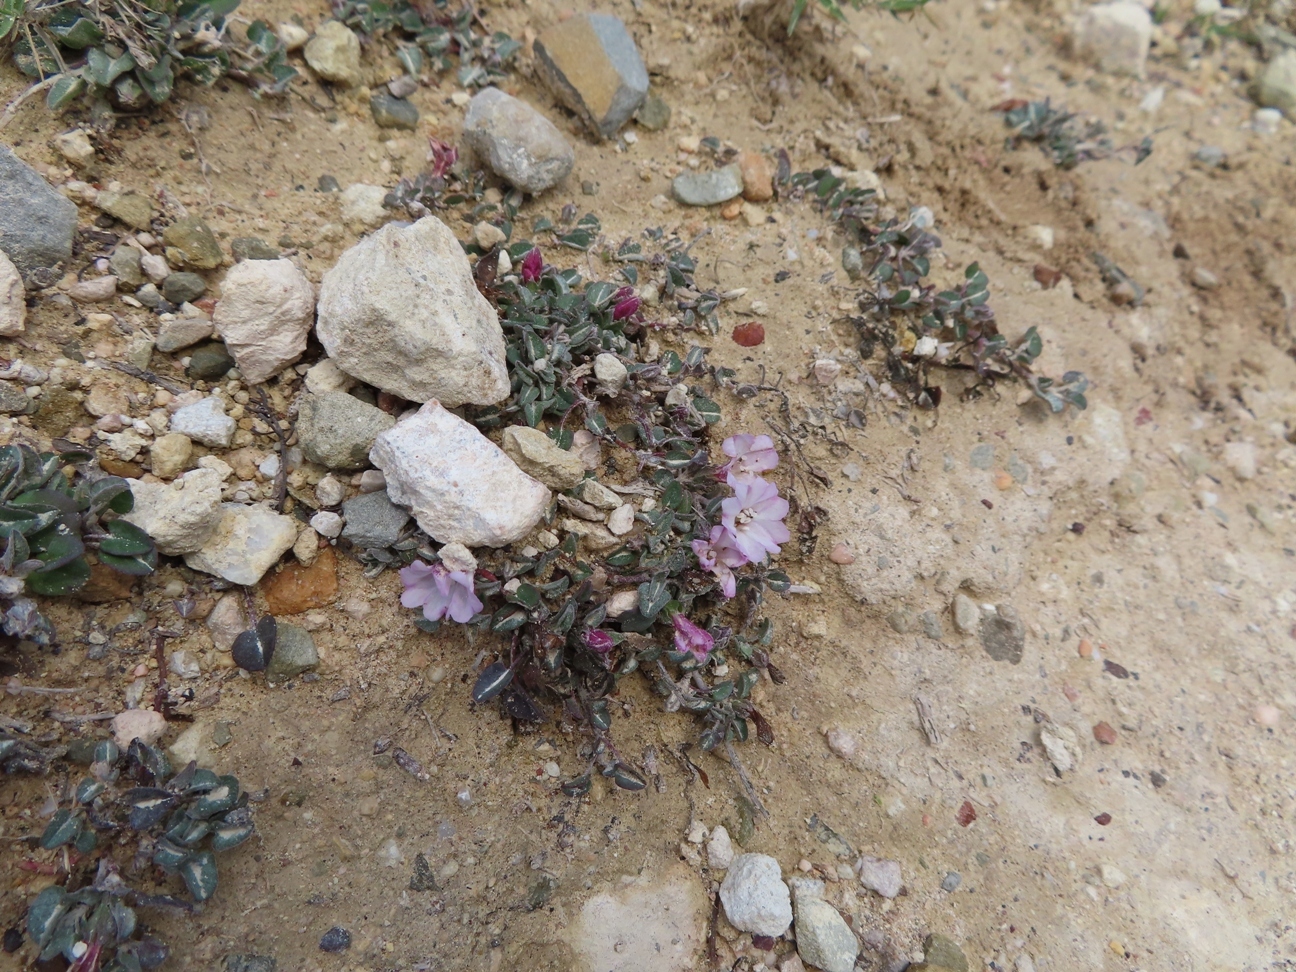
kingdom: Plantae
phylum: Tracheophyta
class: Magnoliopsida
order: Solanales
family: Convolvulaceae
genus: Falkia
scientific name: Falkia repens
